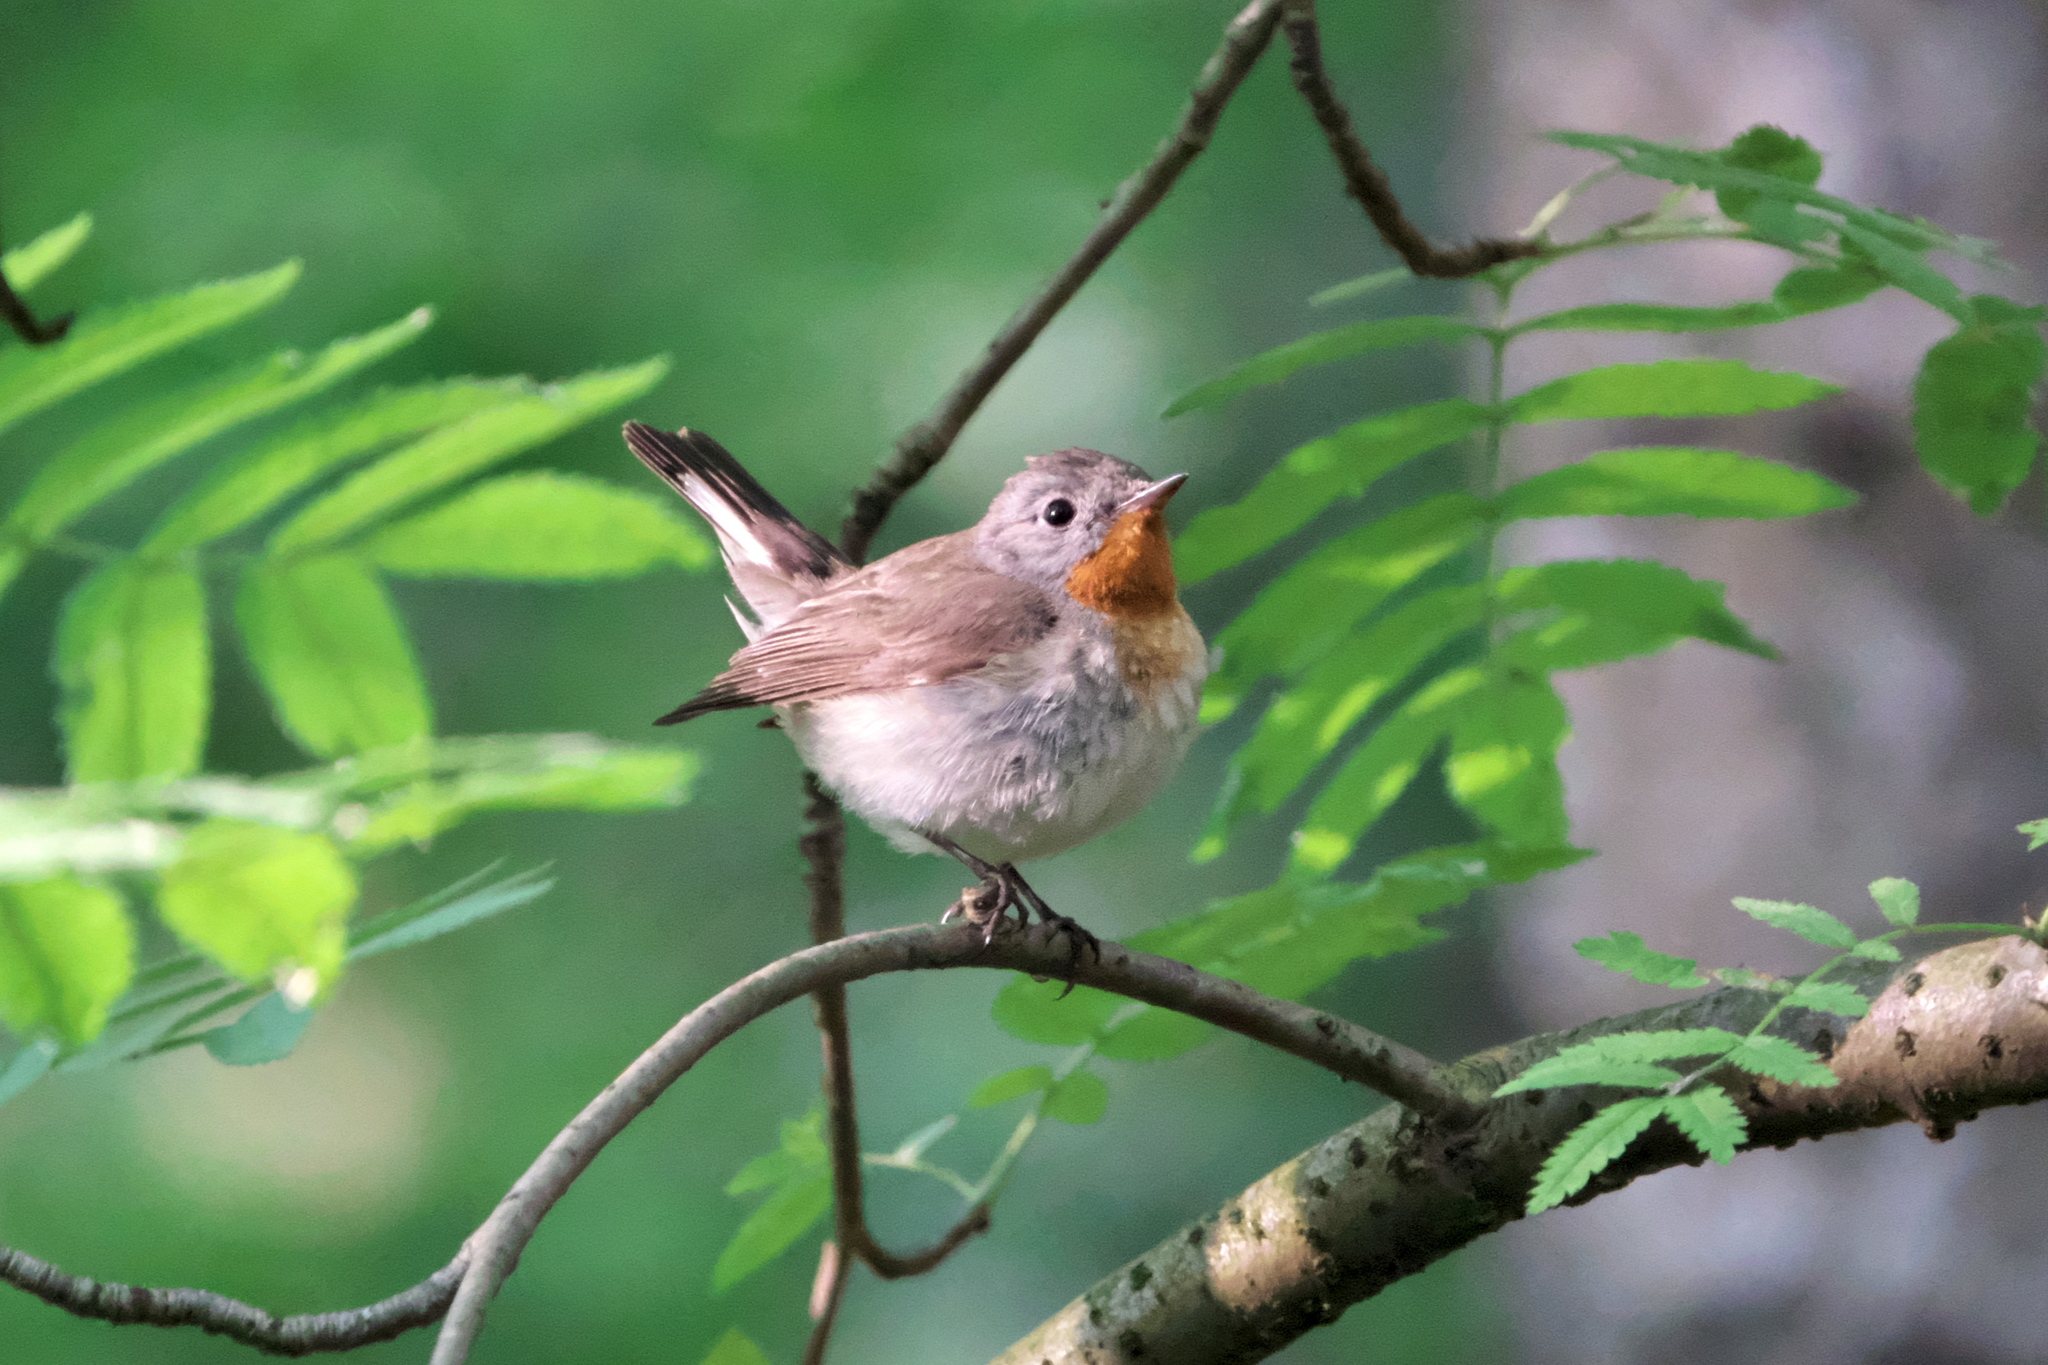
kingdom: Animalia
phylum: Chordata
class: Aves
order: Passeriformes
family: Muscicapidae
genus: Ficedula
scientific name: Ficedula parva
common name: Red-breasted flycatcher
